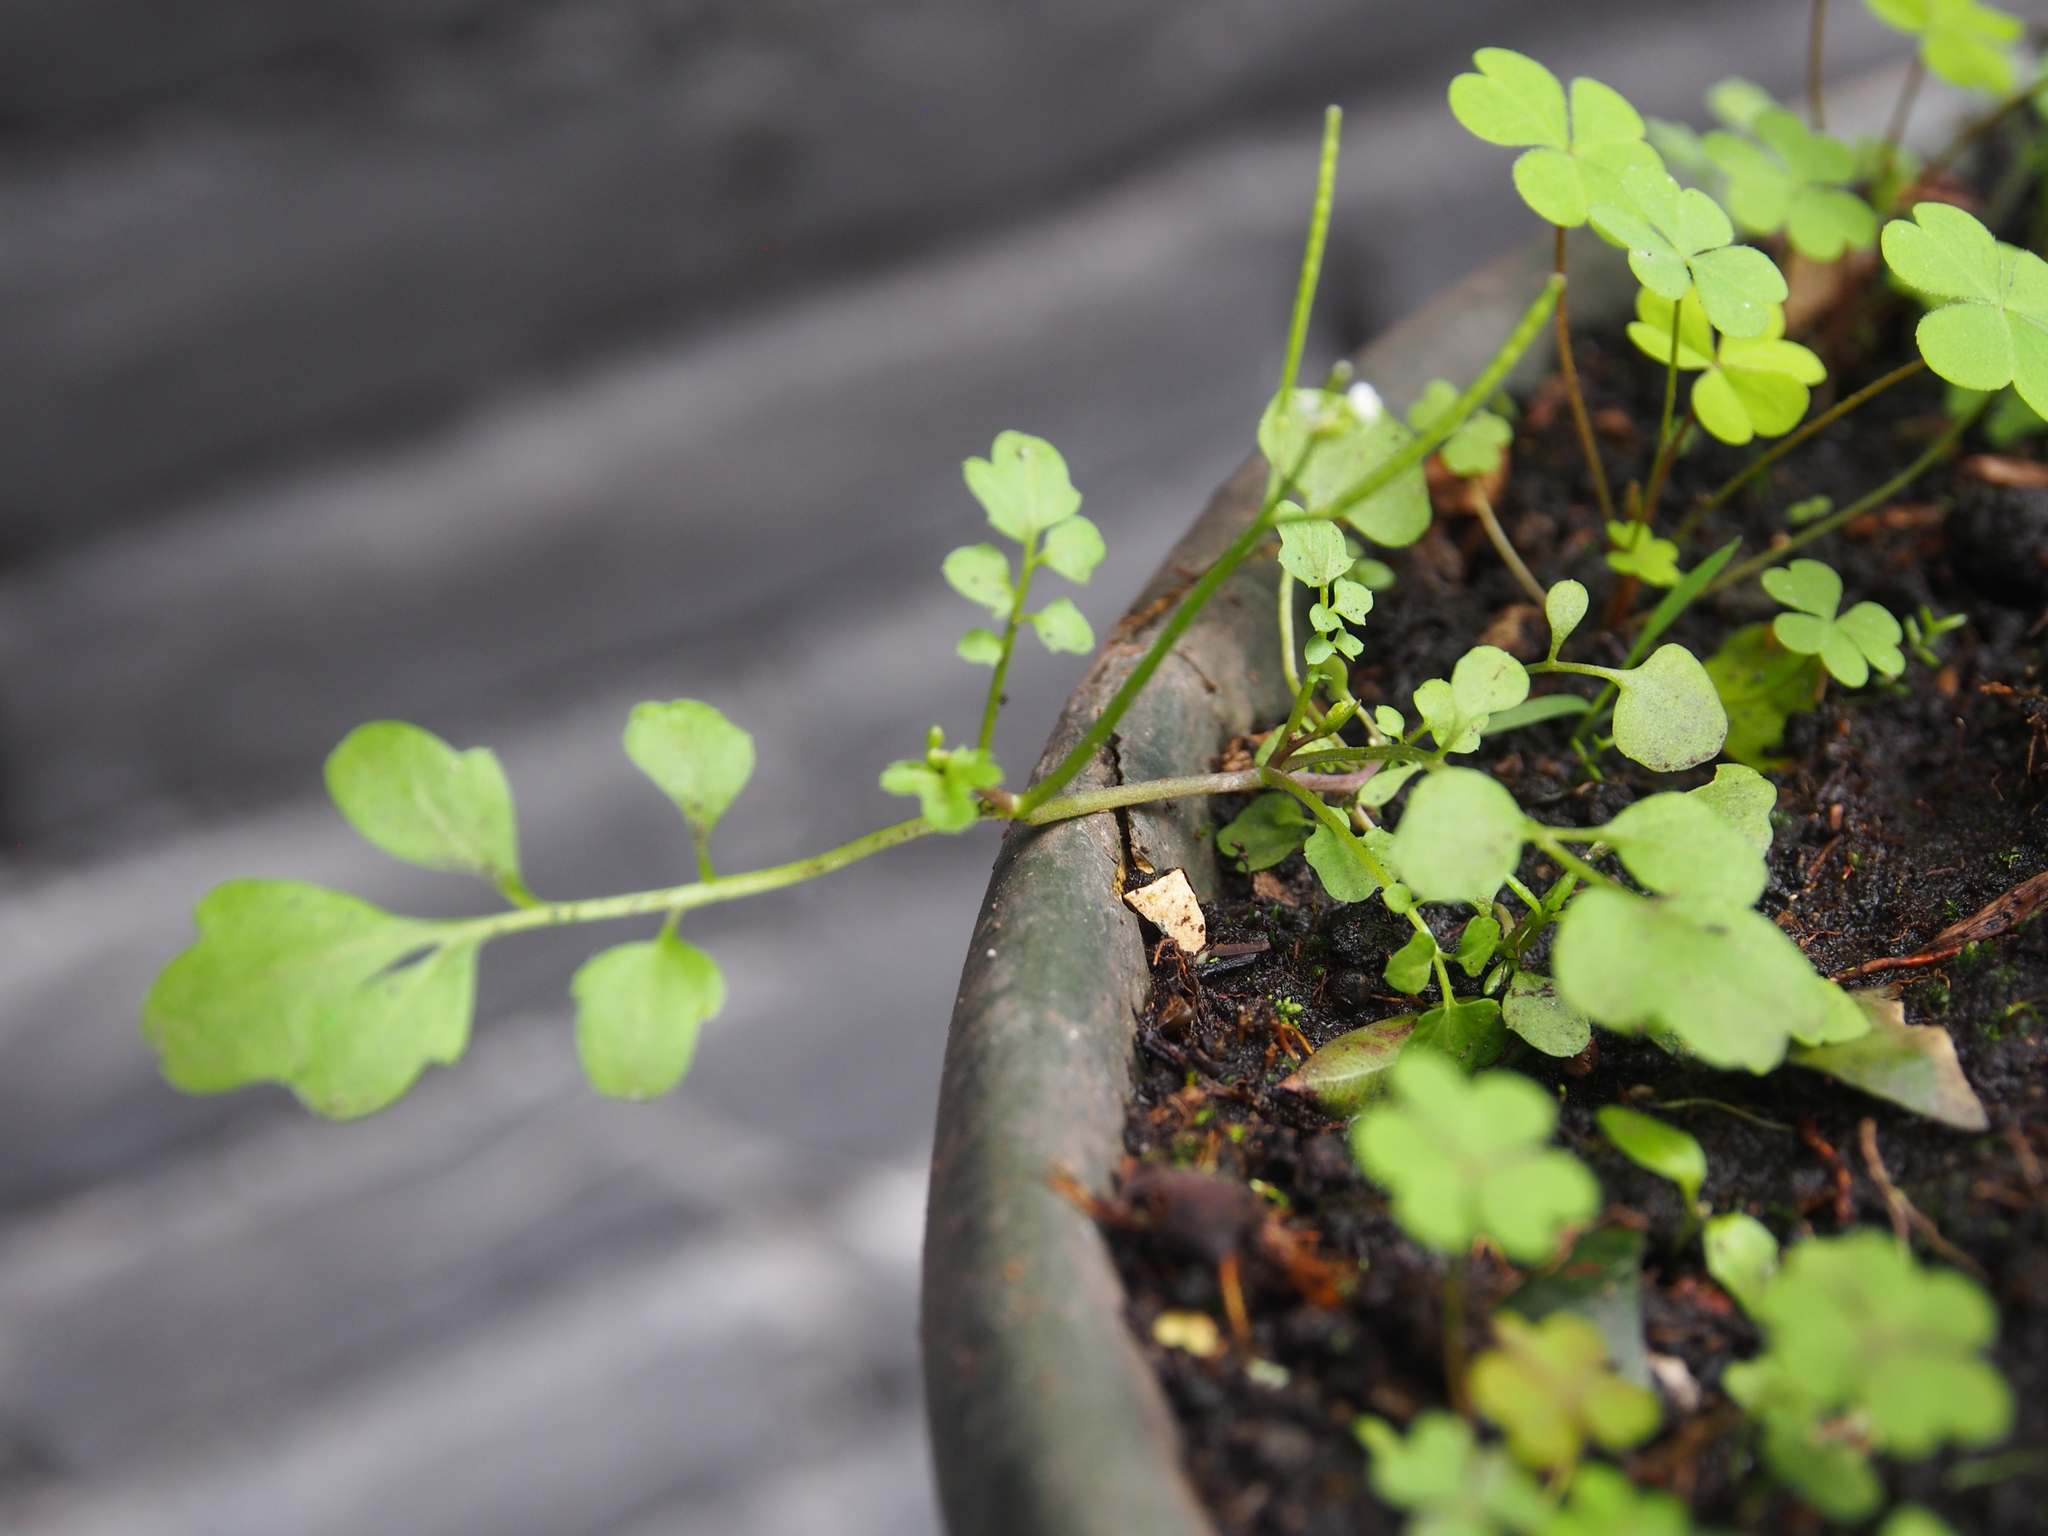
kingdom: Plantae
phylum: Tracheophyta
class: Magnoliopsida
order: Brassicales
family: Brassicaceae
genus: Cardamine
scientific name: Cardamine occulta
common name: Asian wavy bittercress
